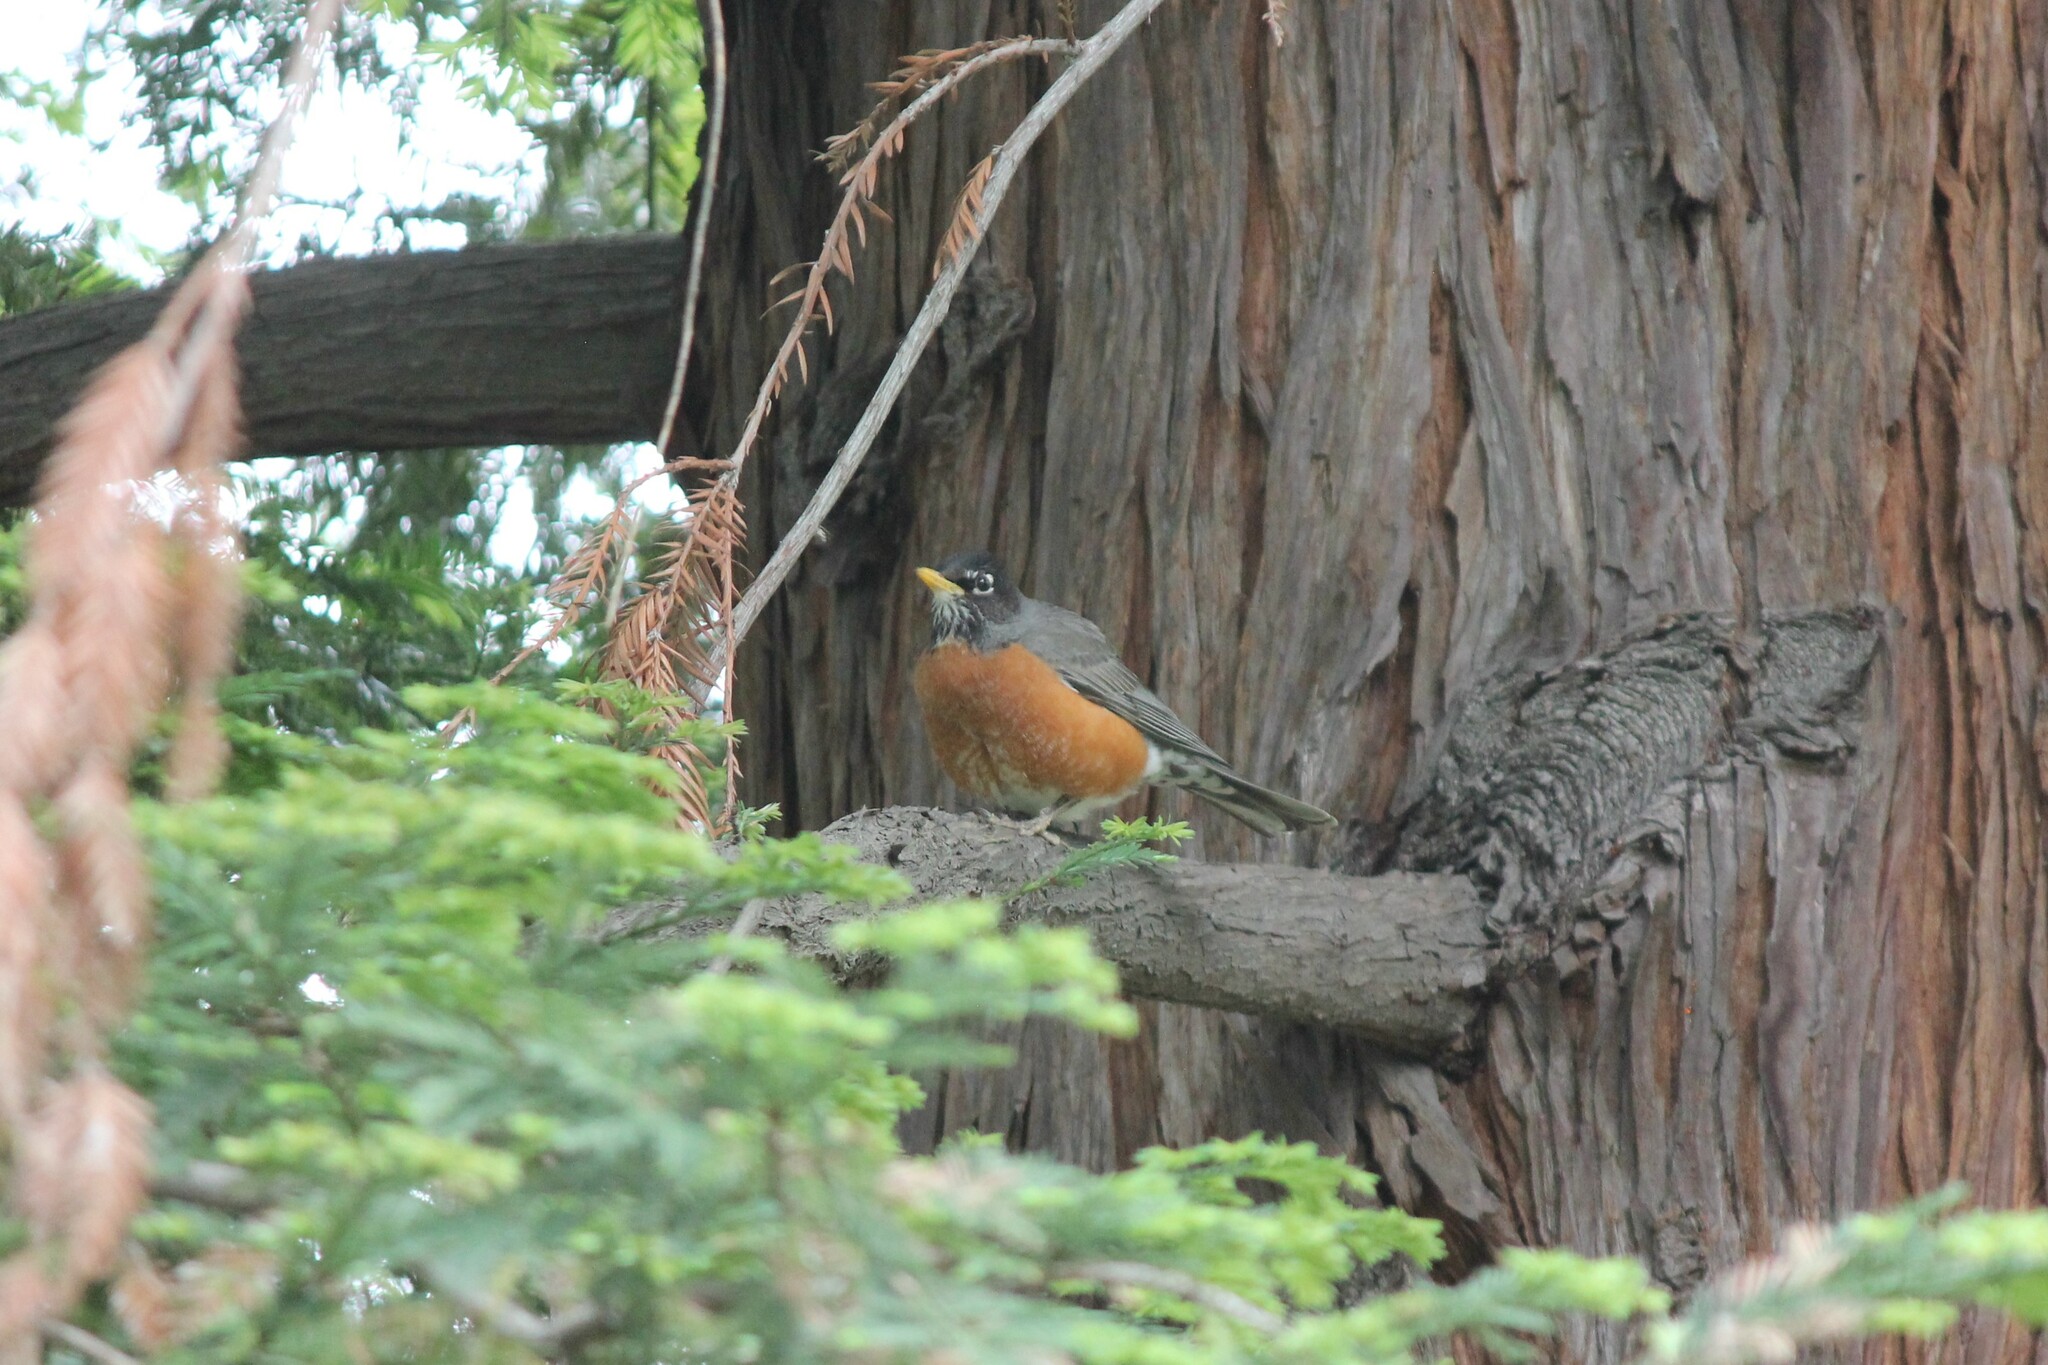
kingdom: Animalia
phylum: Chordata
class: Aves
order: Passeriformes
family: Turdidae
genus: Turdus
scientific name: Turdus migratorius
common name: American robin
